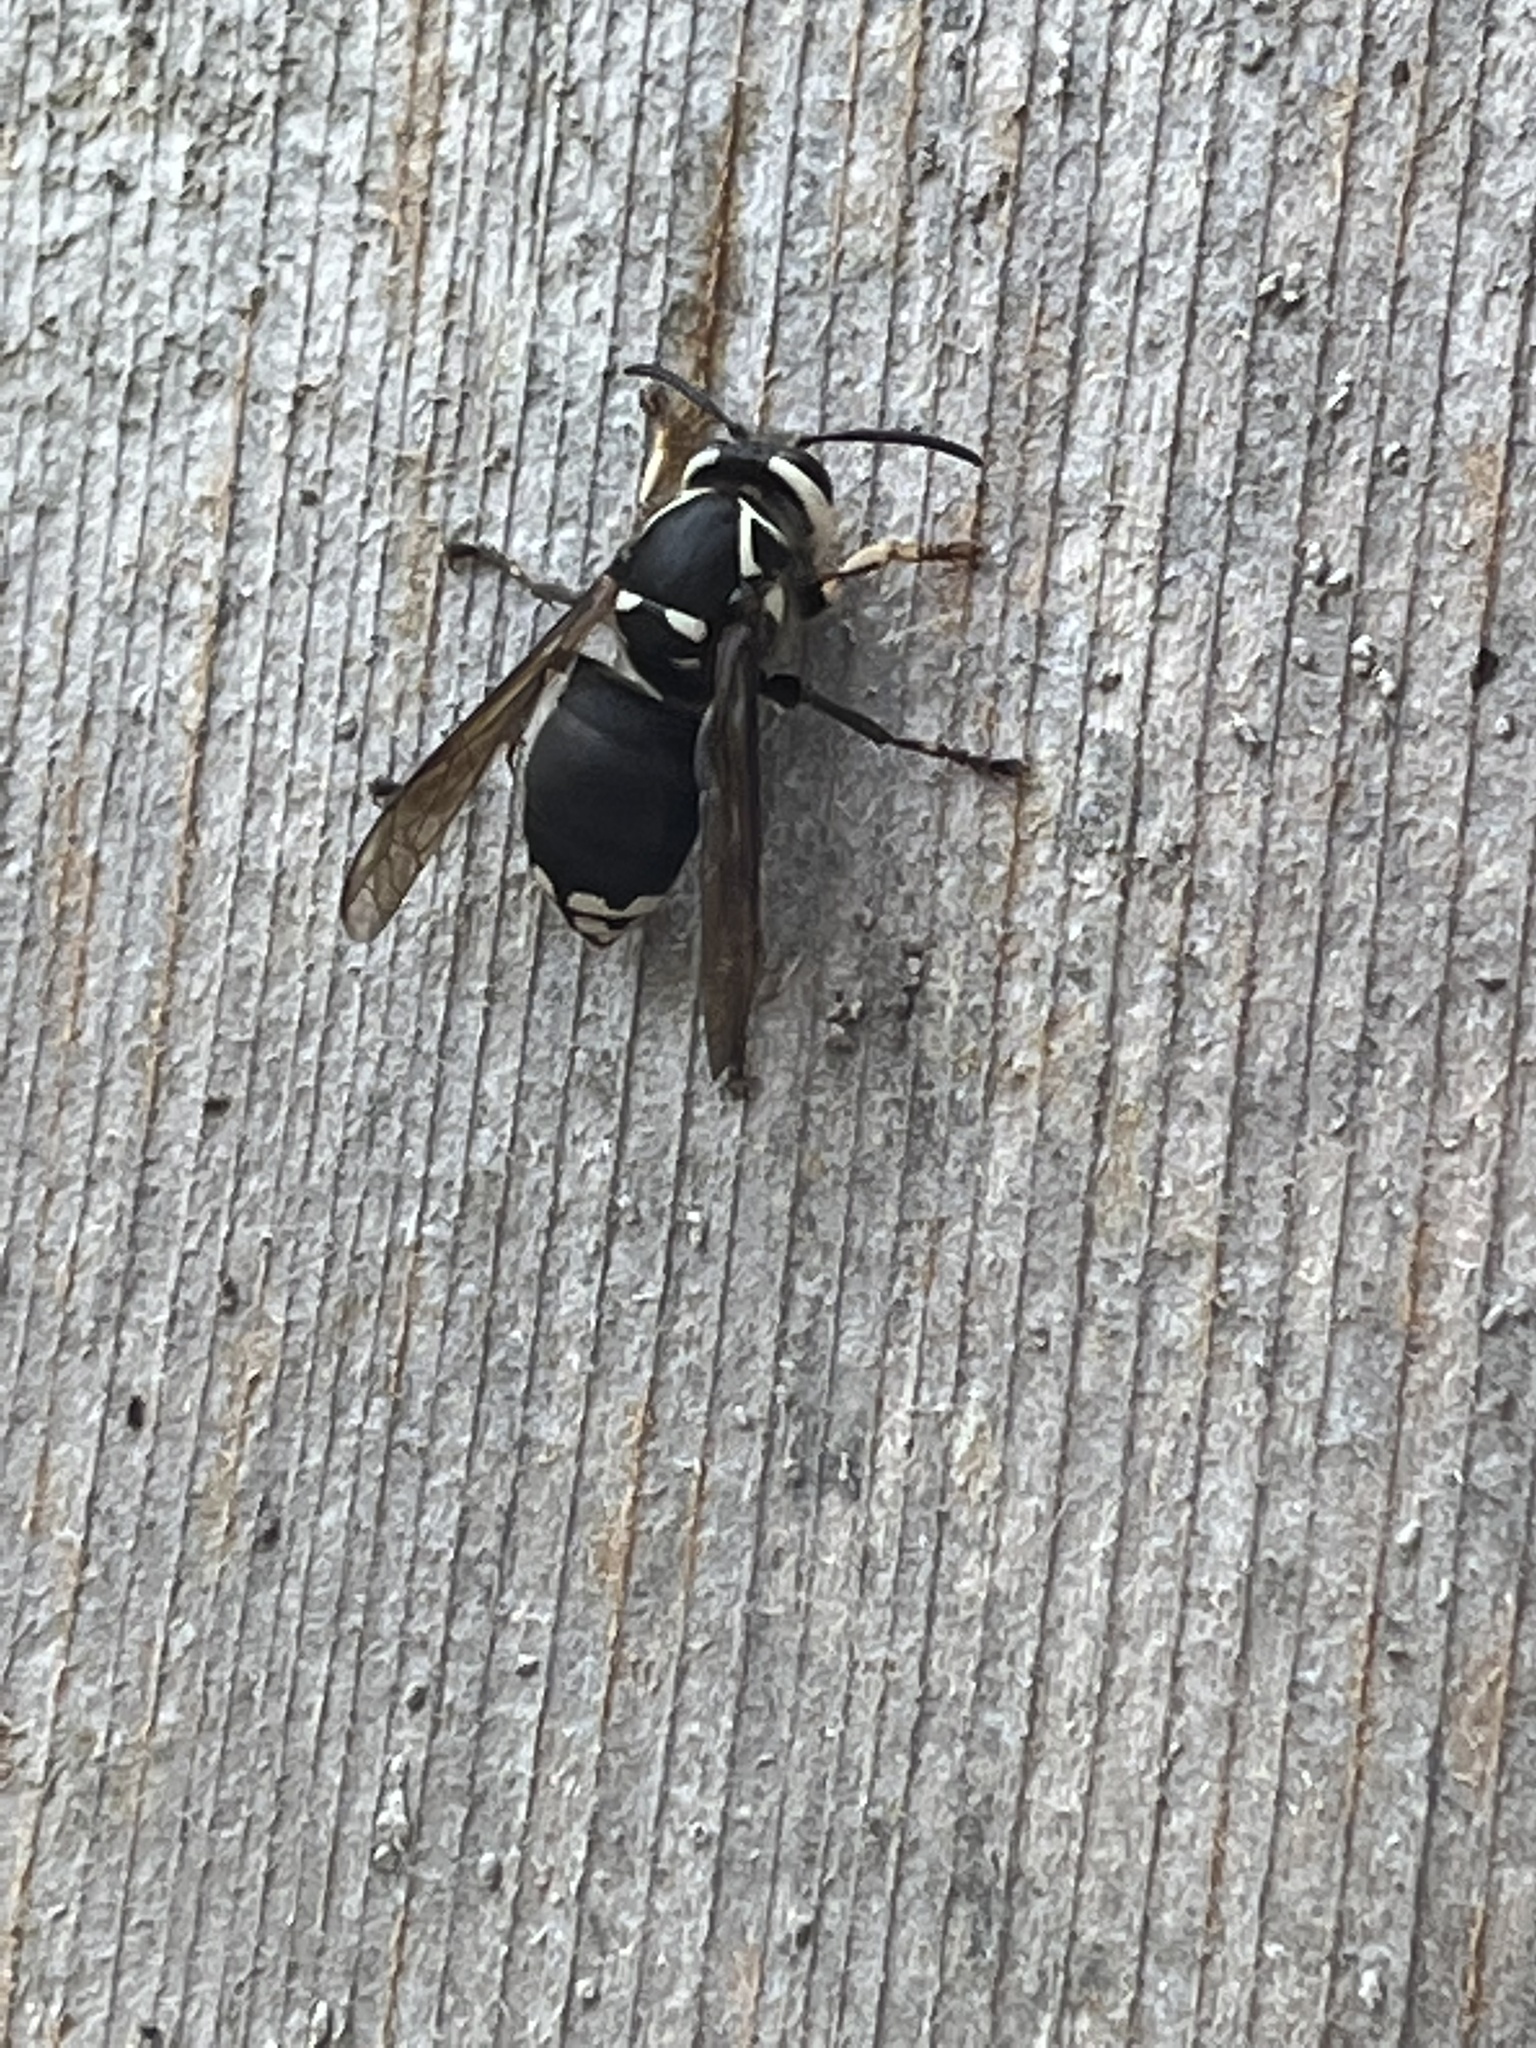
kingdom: Animalia
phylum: Arthropoda
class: Insecta
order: Hymenoptera
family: Vespidae
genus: Dolichovespula
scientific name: Dolichovespula maculata
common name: Bald-faced hornet
